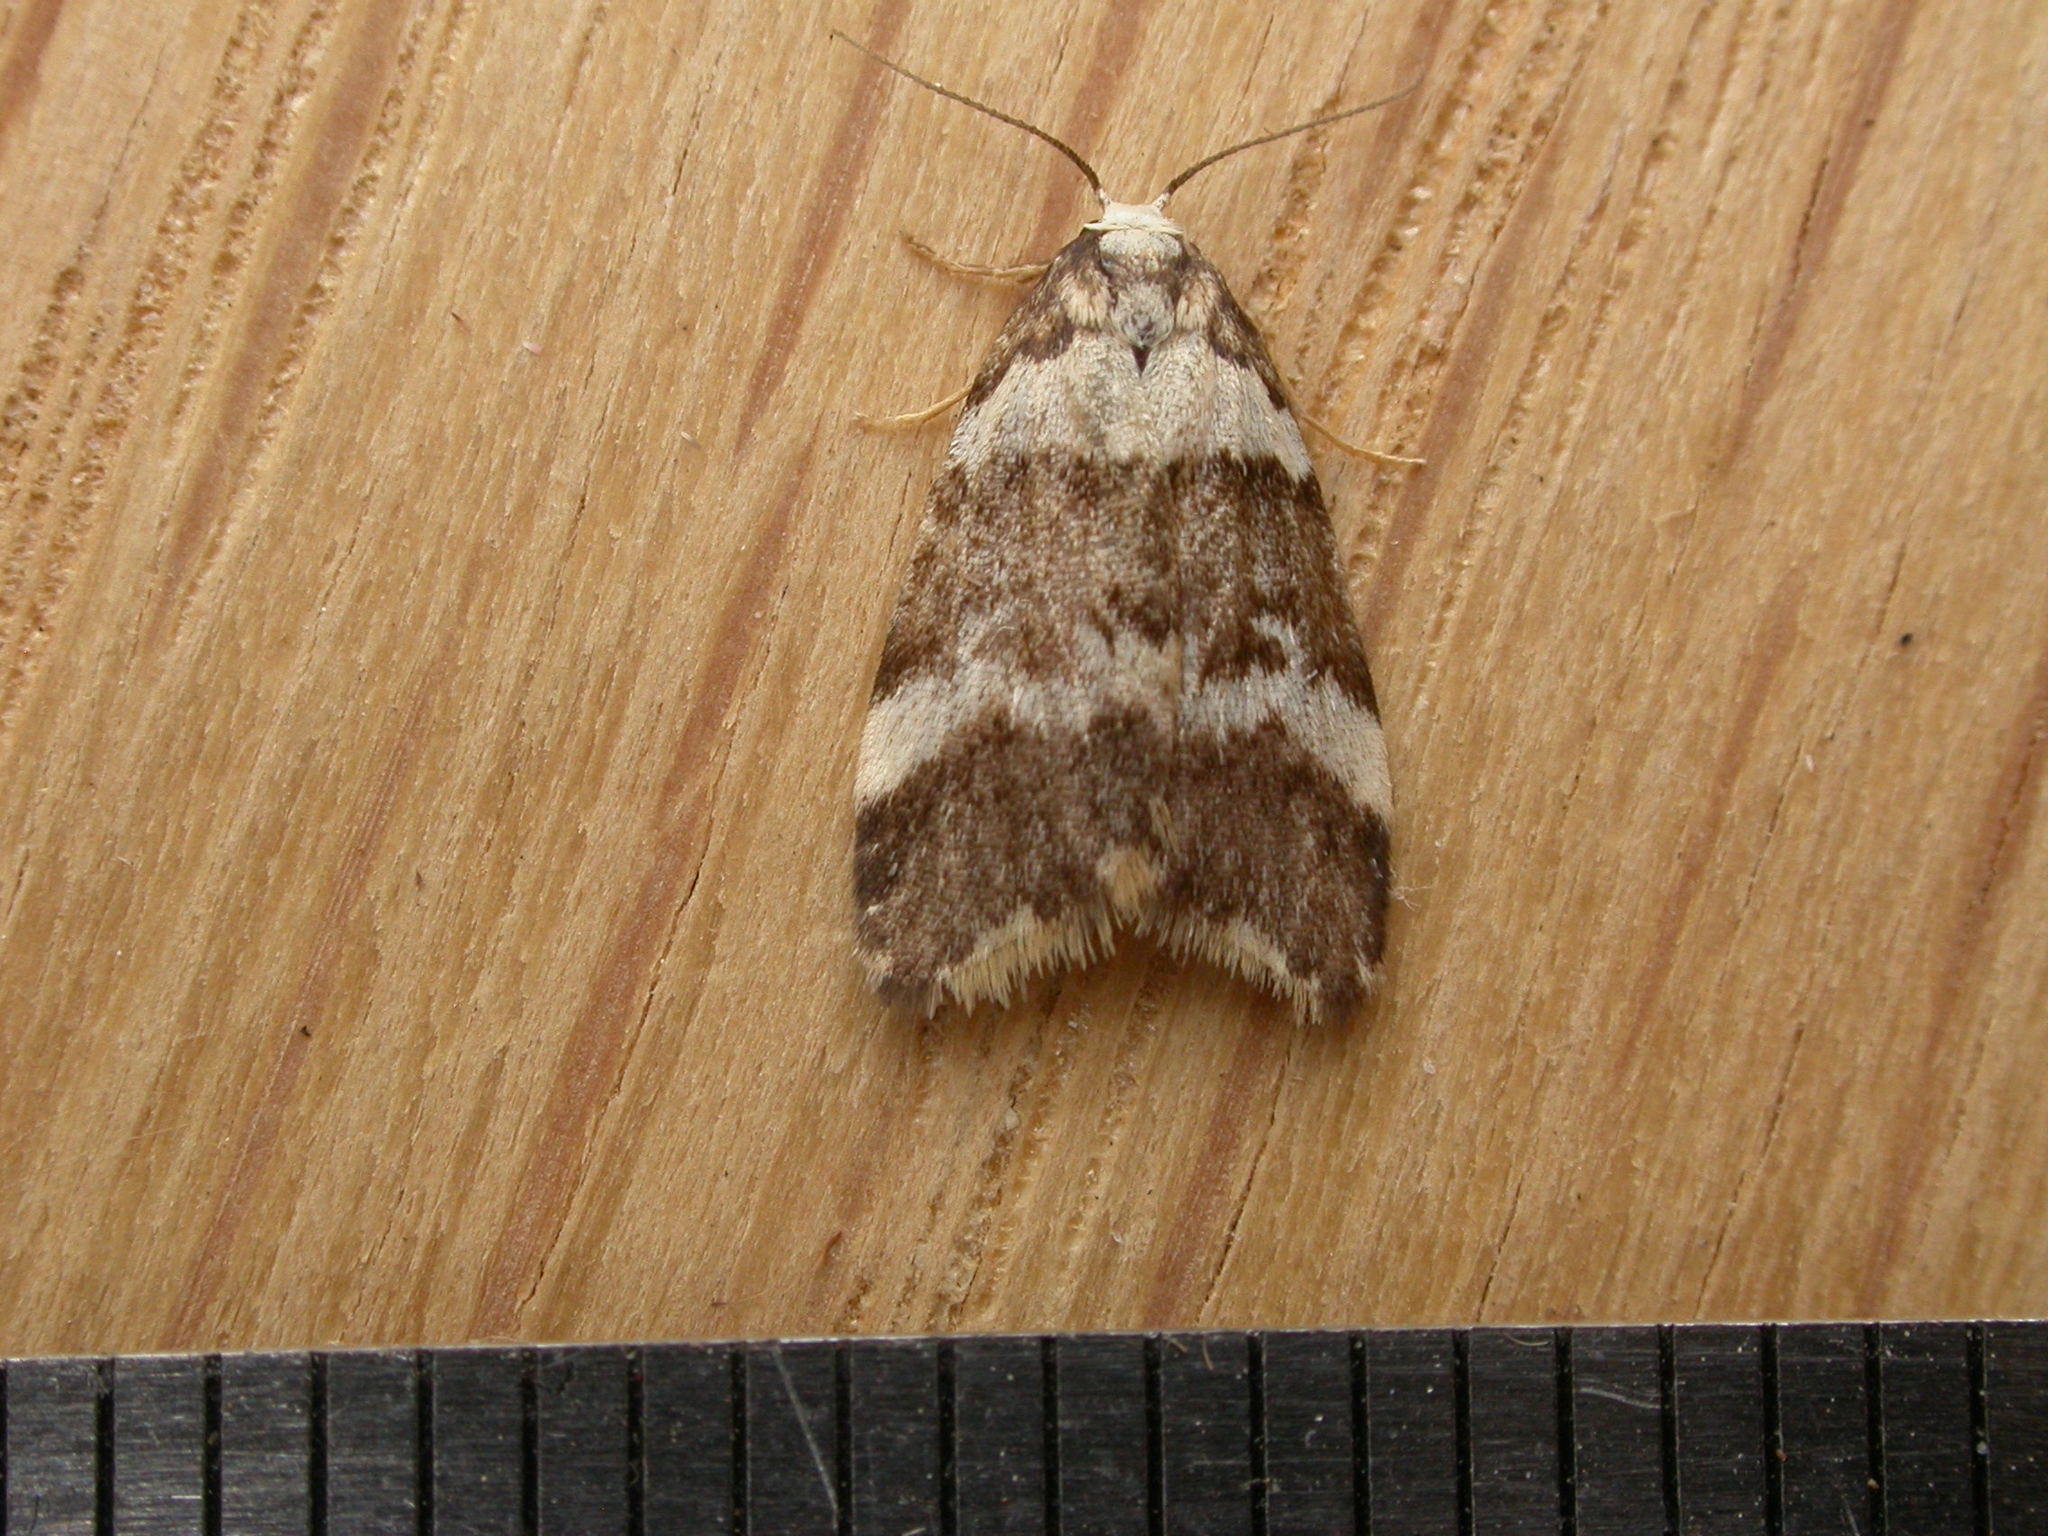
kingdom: Animalia
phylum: Arthropoda
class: Insecta
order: Lepidoptera
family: Erebidae
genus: Halone
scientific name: Halone sejuncta
